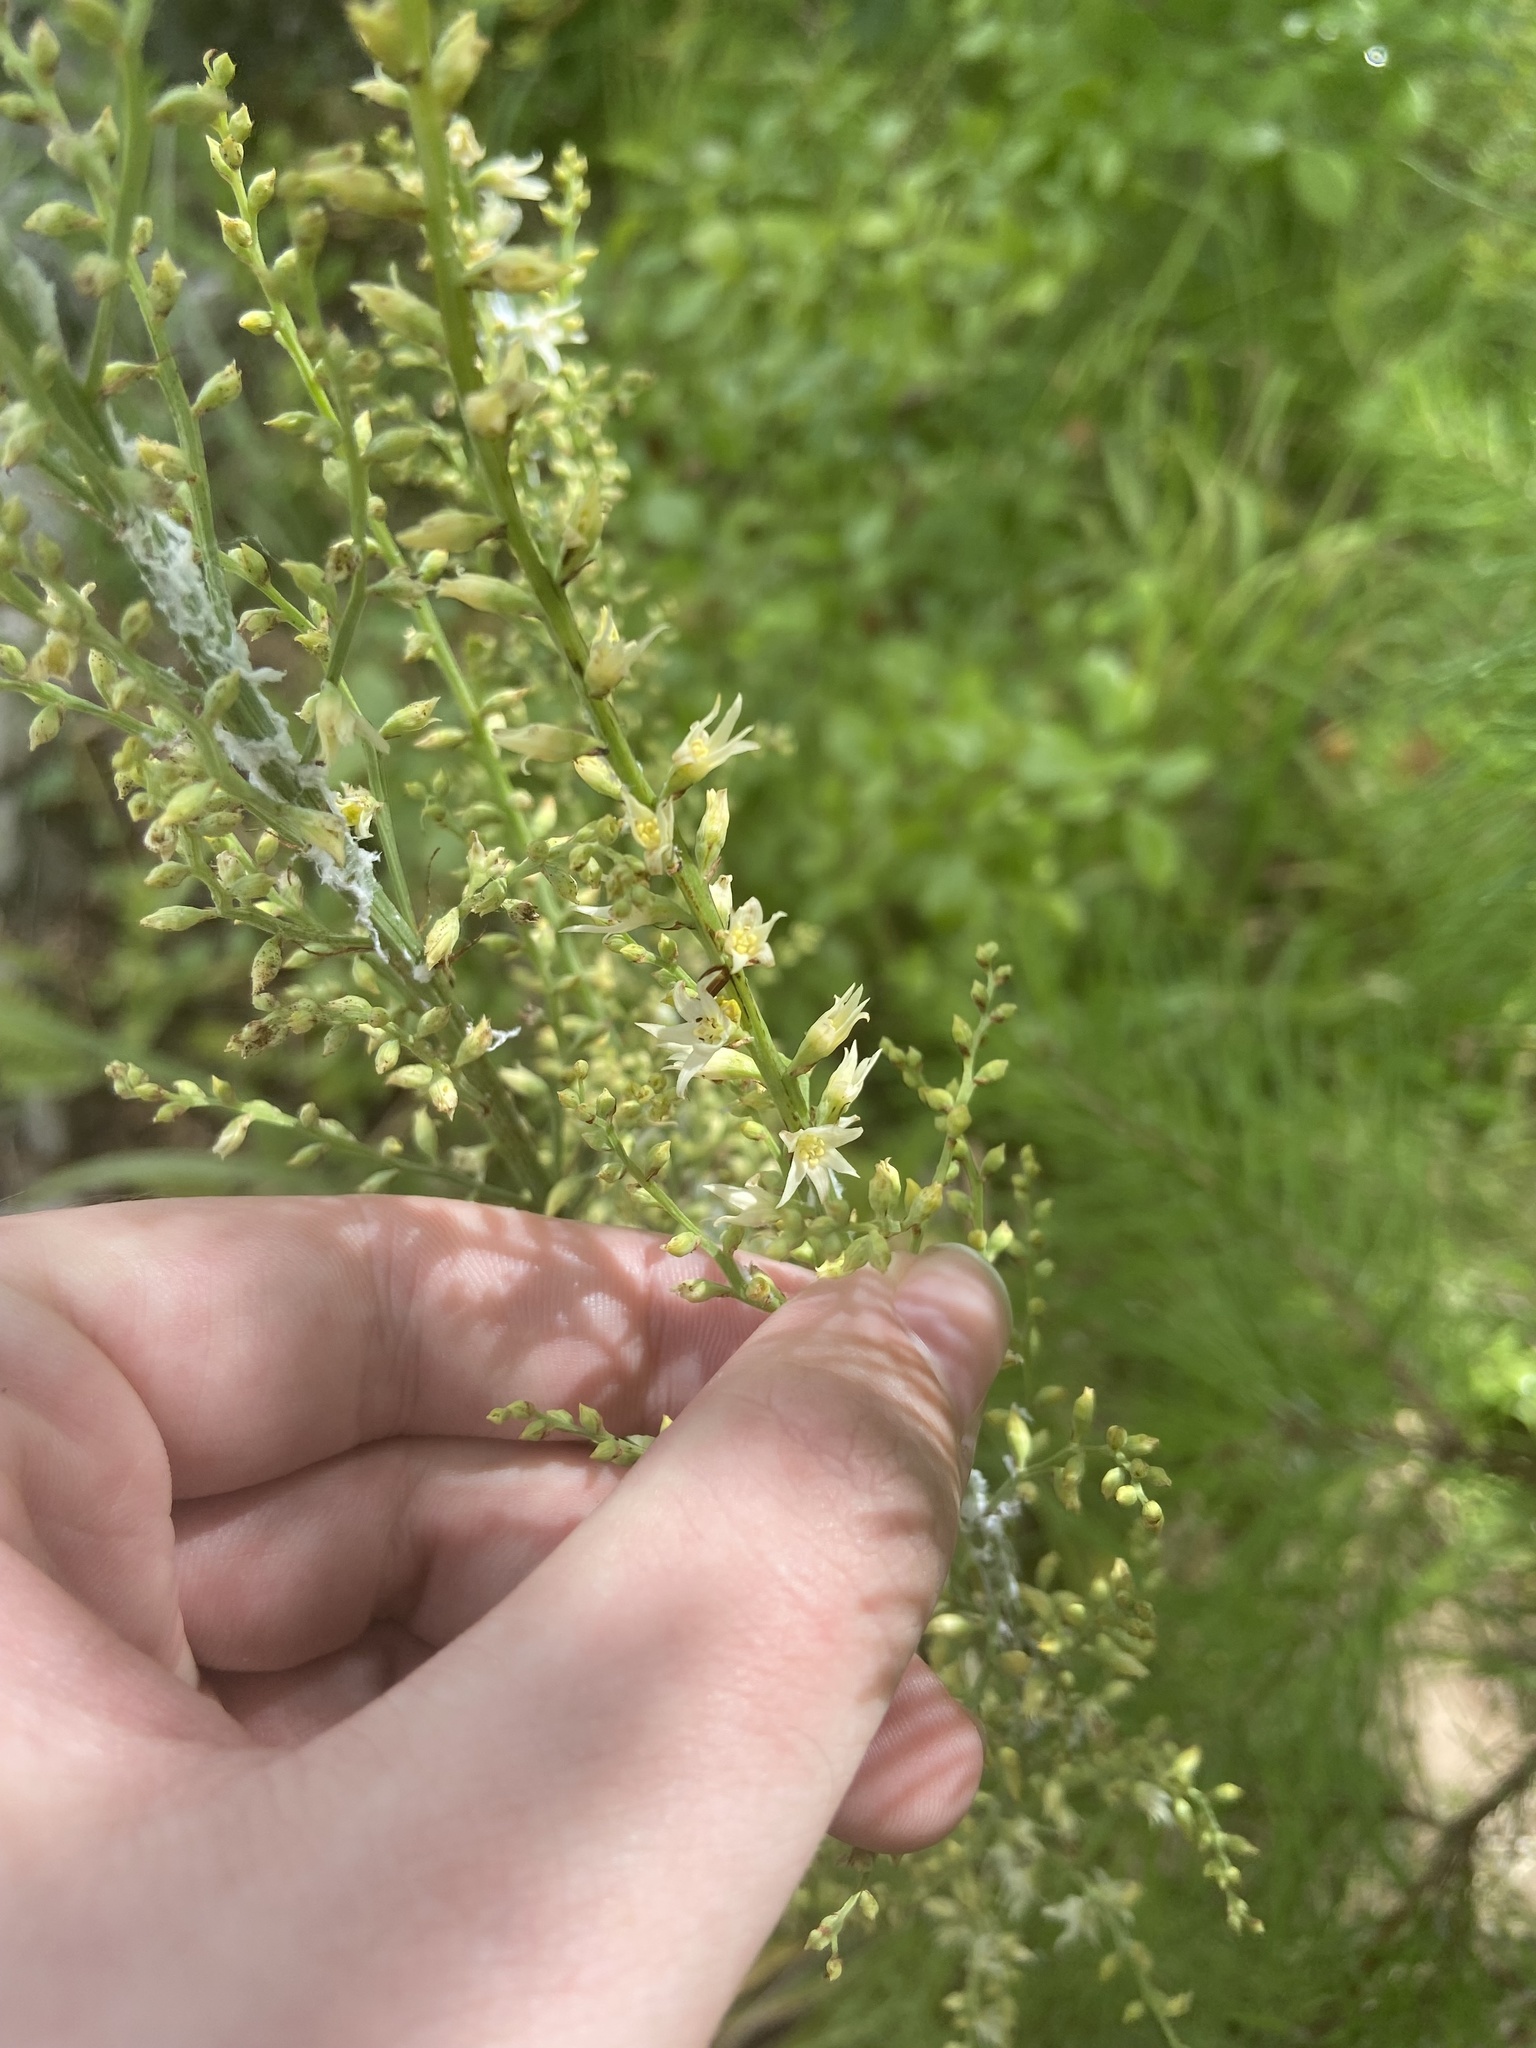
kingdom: Plantae
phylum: Tracheophyta
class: Liliopsida
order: Liliales
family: Melanthiaceae
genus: Stenanthium
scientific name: Stenanthium gramineum
